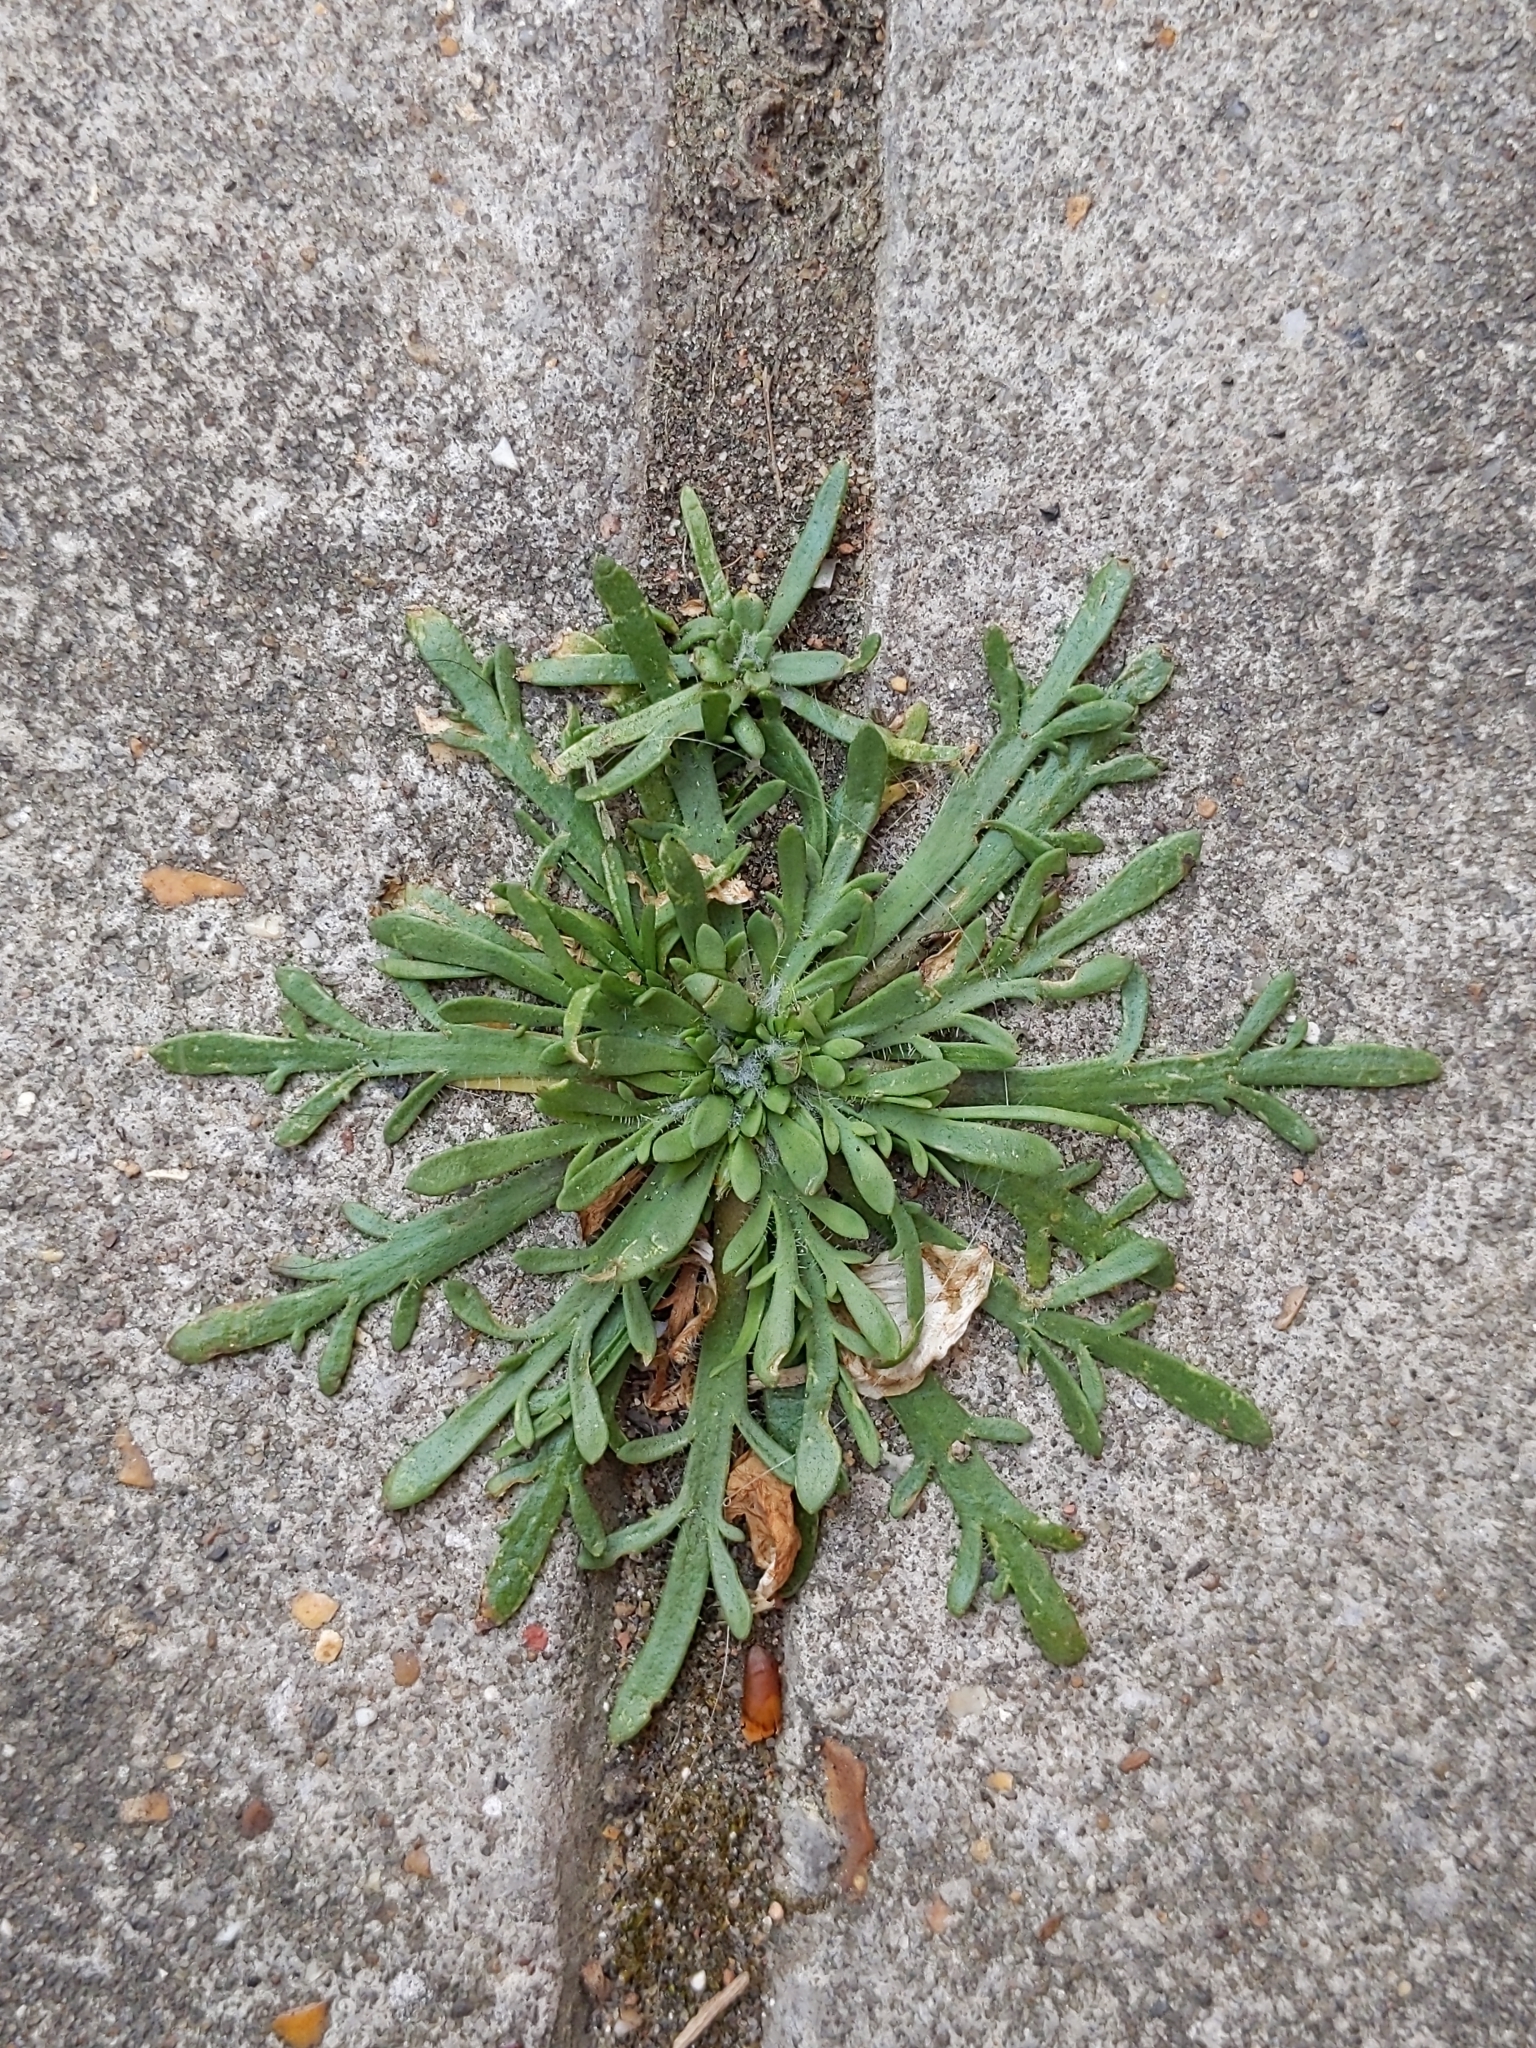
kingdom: Plantae
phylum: Tracheophyta
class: Magnoliopsida
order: Lamiales
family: Plantaginaceae
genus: Plantago
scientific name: Plantago coronopus
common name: Buck's-horn plantain
